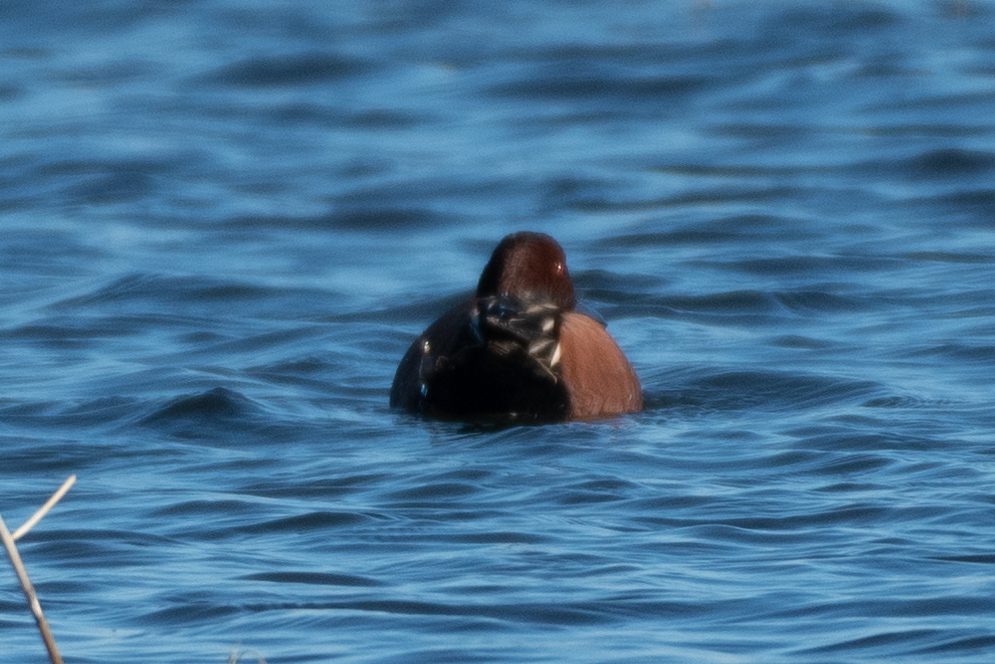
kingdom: Animalia
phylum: Chordata
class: Aves
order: Anseriformes
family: Anatidae
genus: Spatula
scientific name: Spatula cyanoptera
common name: Cinnamon teal
